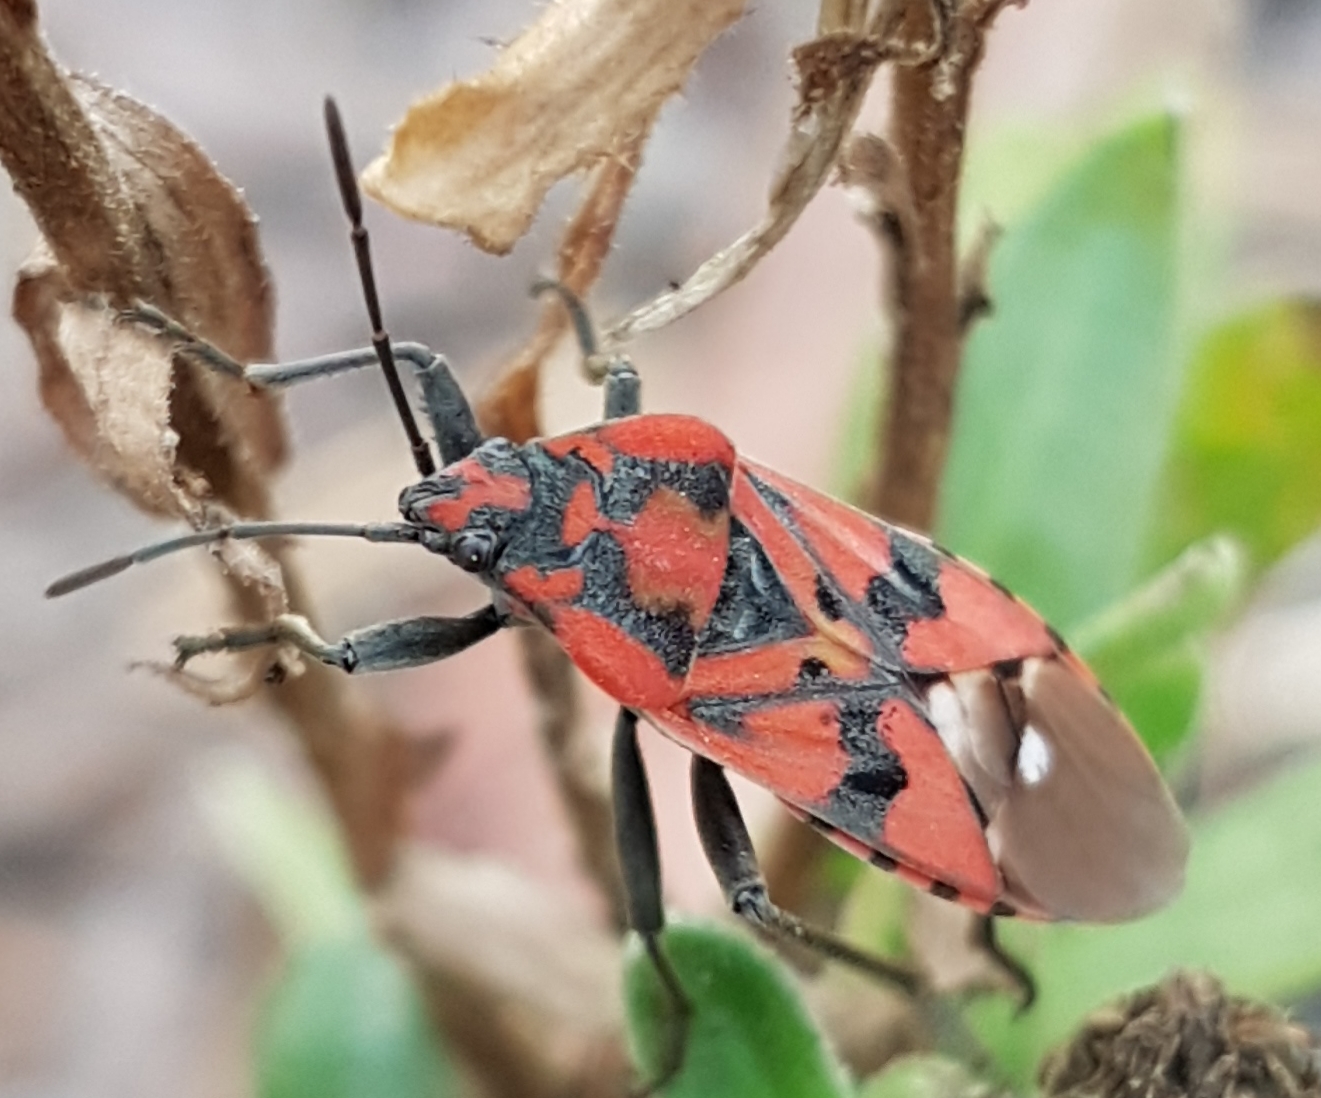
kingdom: Animalia
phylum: Arthropoda
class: Insecta
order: Hemiptera
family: Lygaeidae
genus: Spilostethus
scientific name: Spilostethus pandurus
